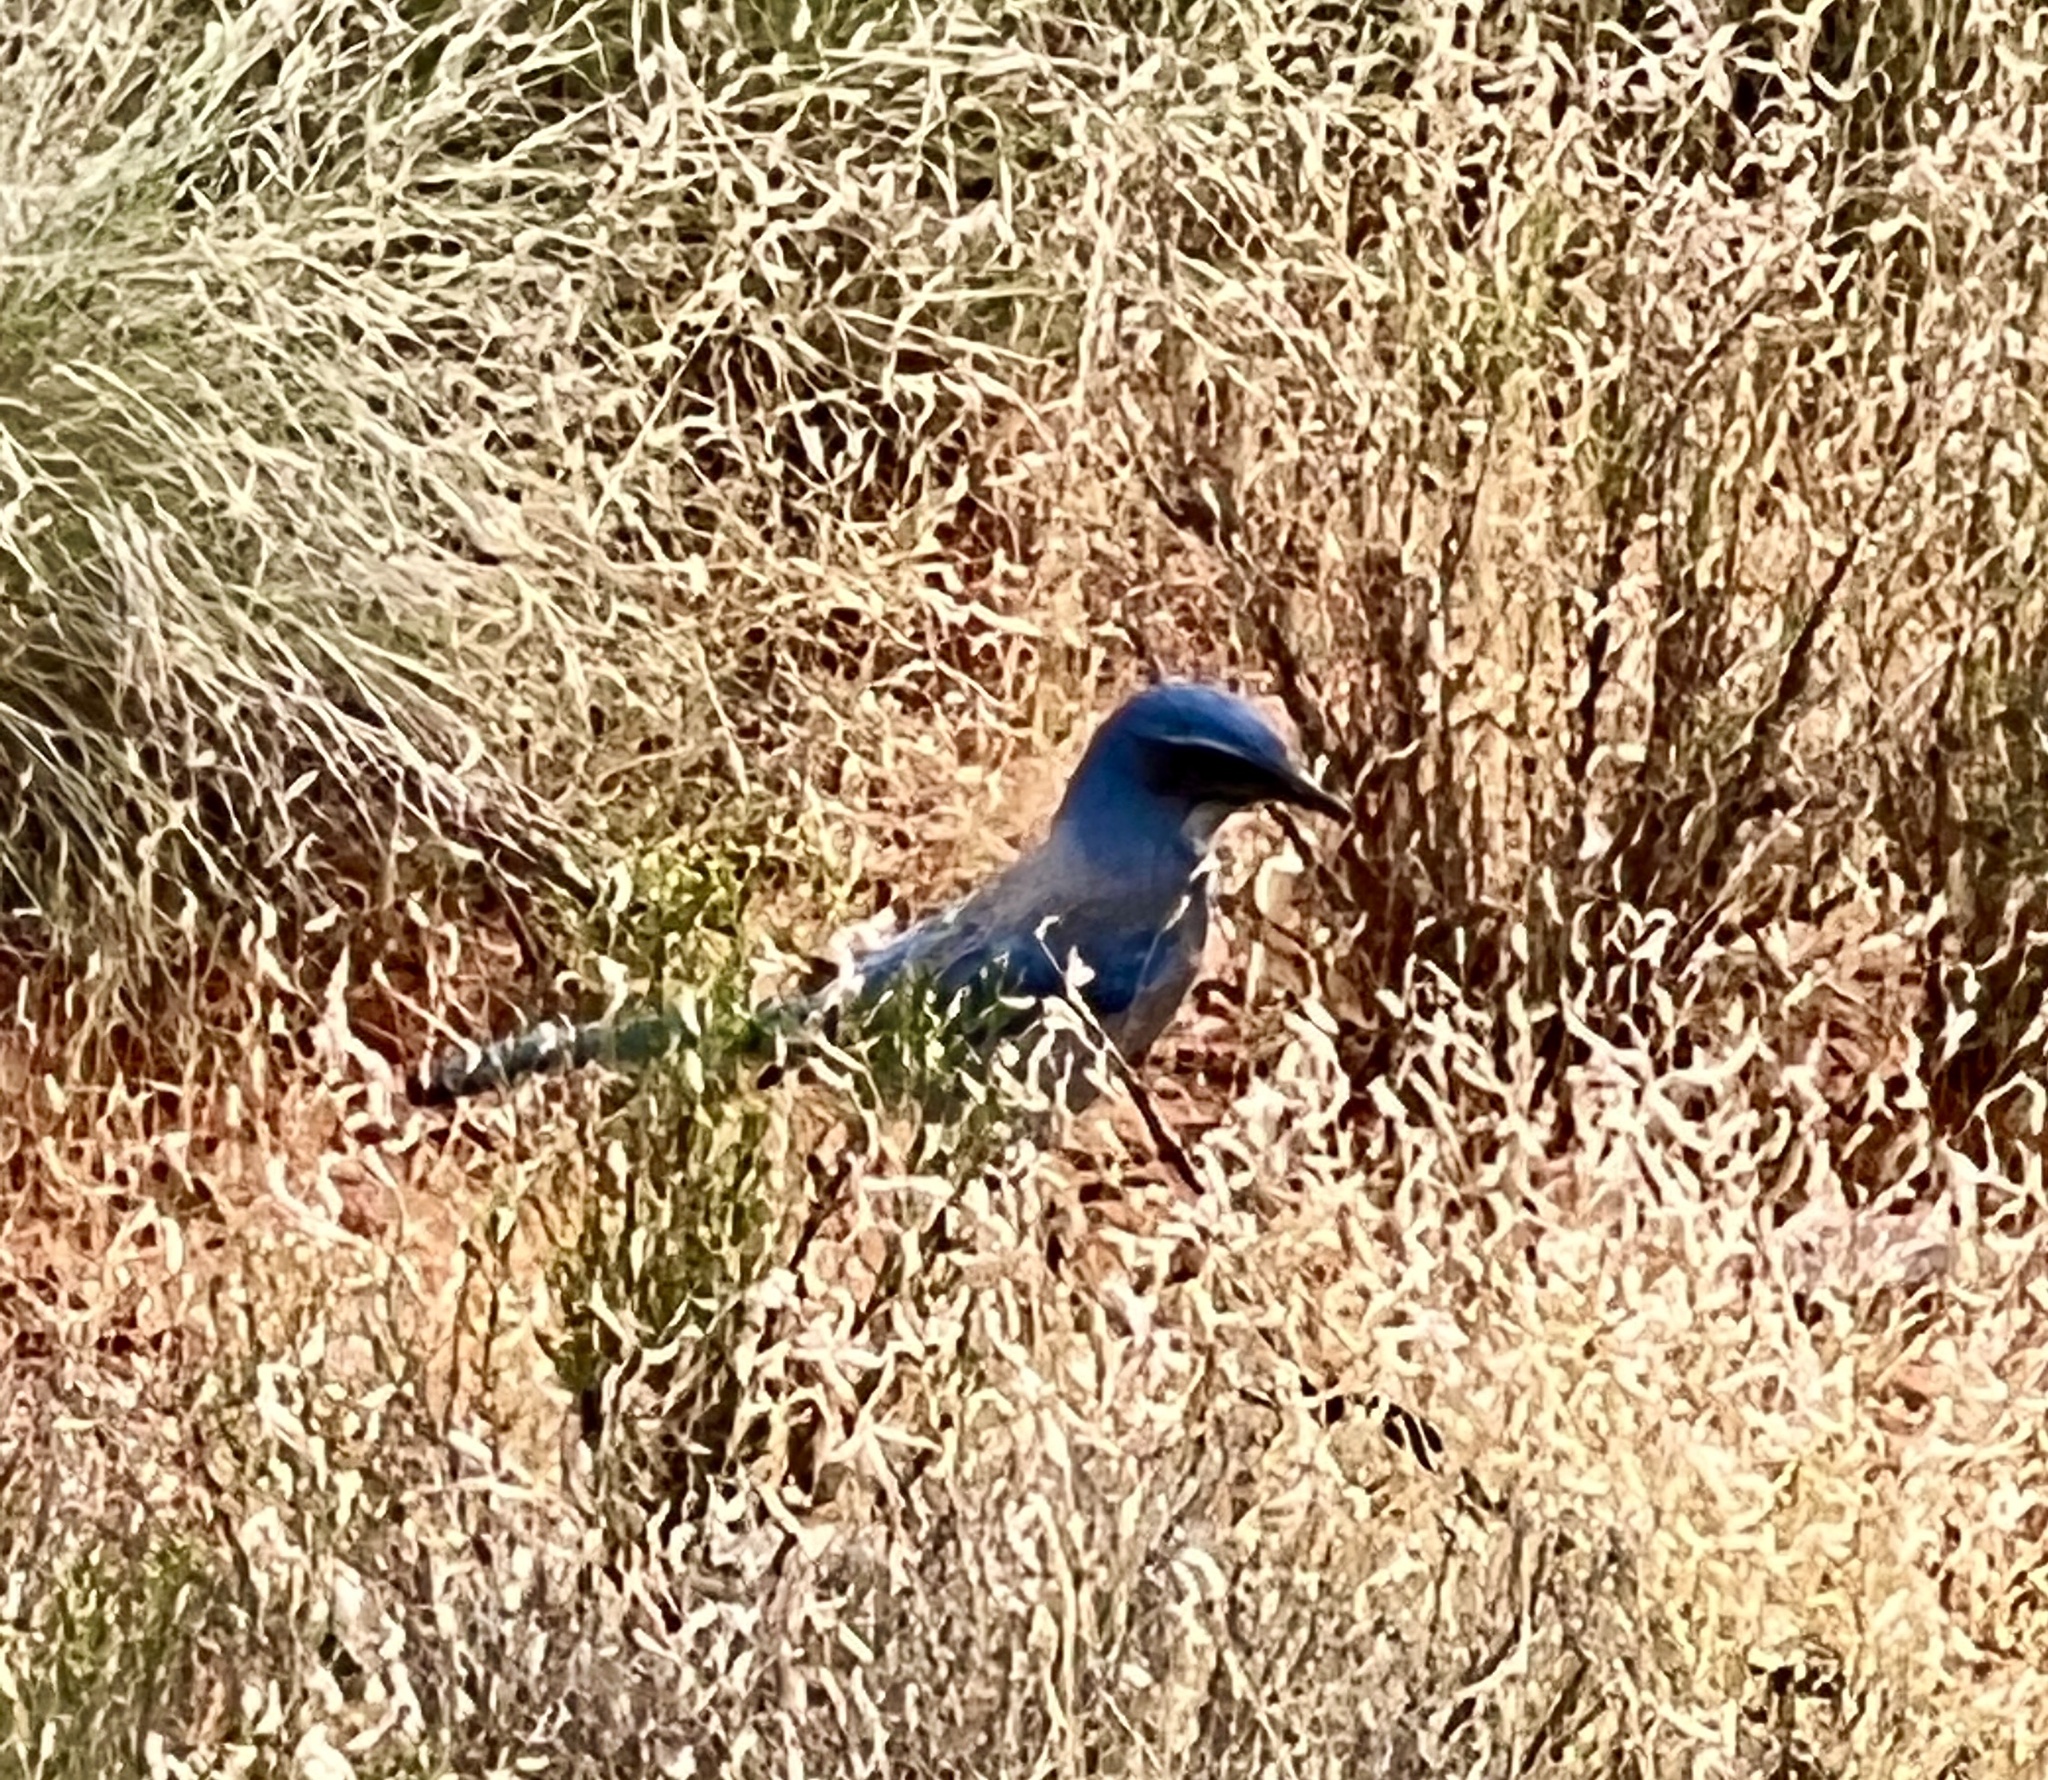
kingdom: Animalia
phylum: Chordata
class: Aves
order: Passeriformes
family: Corvidae
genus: Aphelocoma
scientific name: Aphelocoma woodhouseii
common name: Woodhouse's scrub-jay
